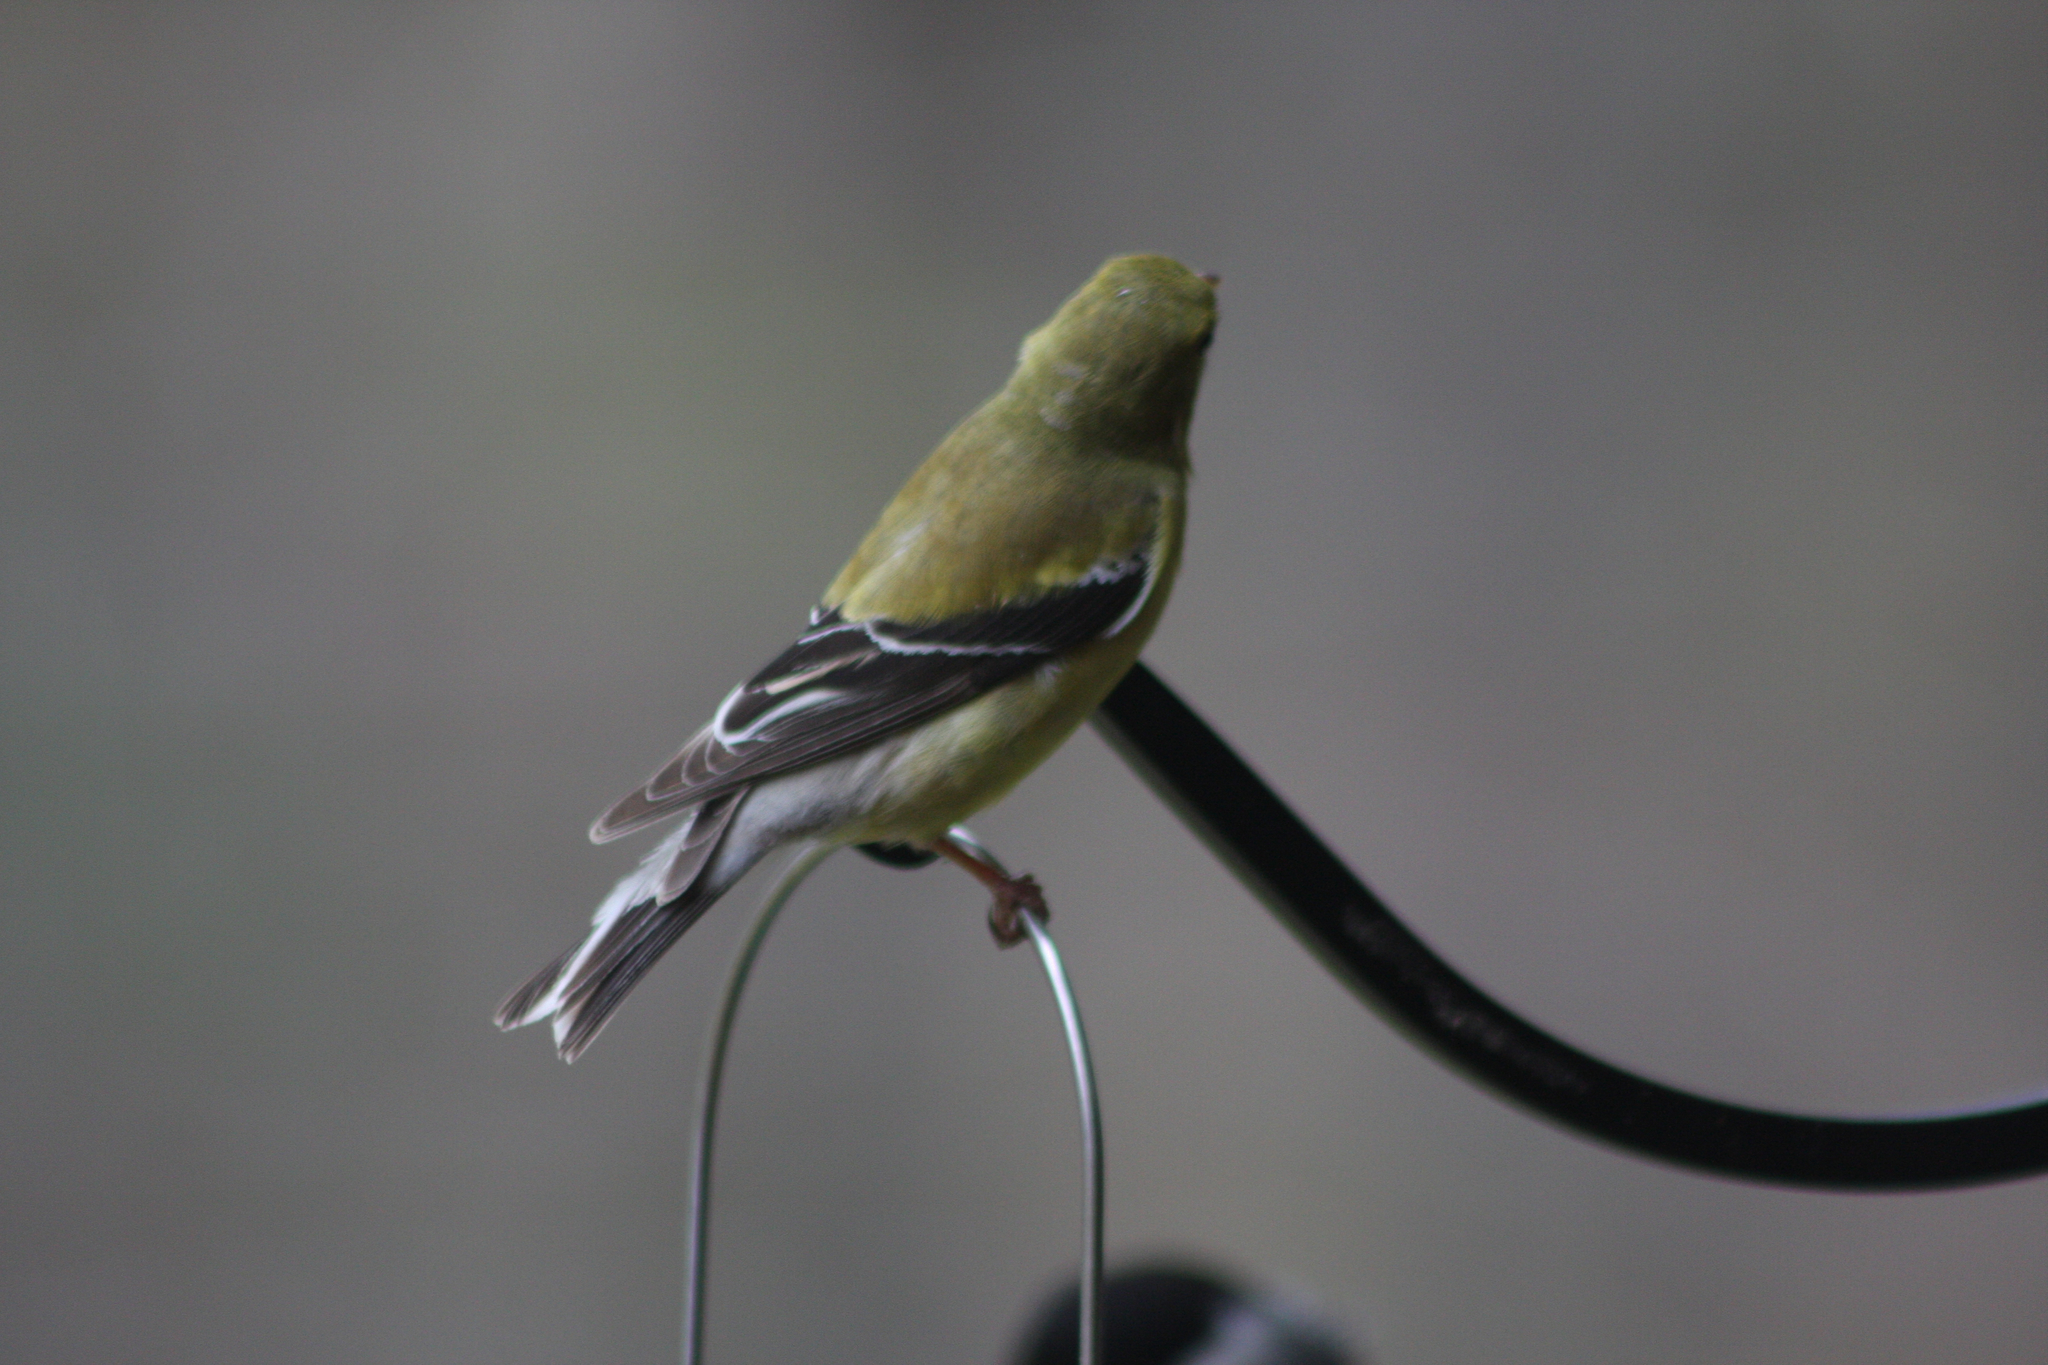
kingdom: Animalia
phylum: Chordata
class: Aves
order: Passeriformes
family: Fringillidae
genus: Spinus
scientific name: Spinus tristis
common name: American goldfinch
